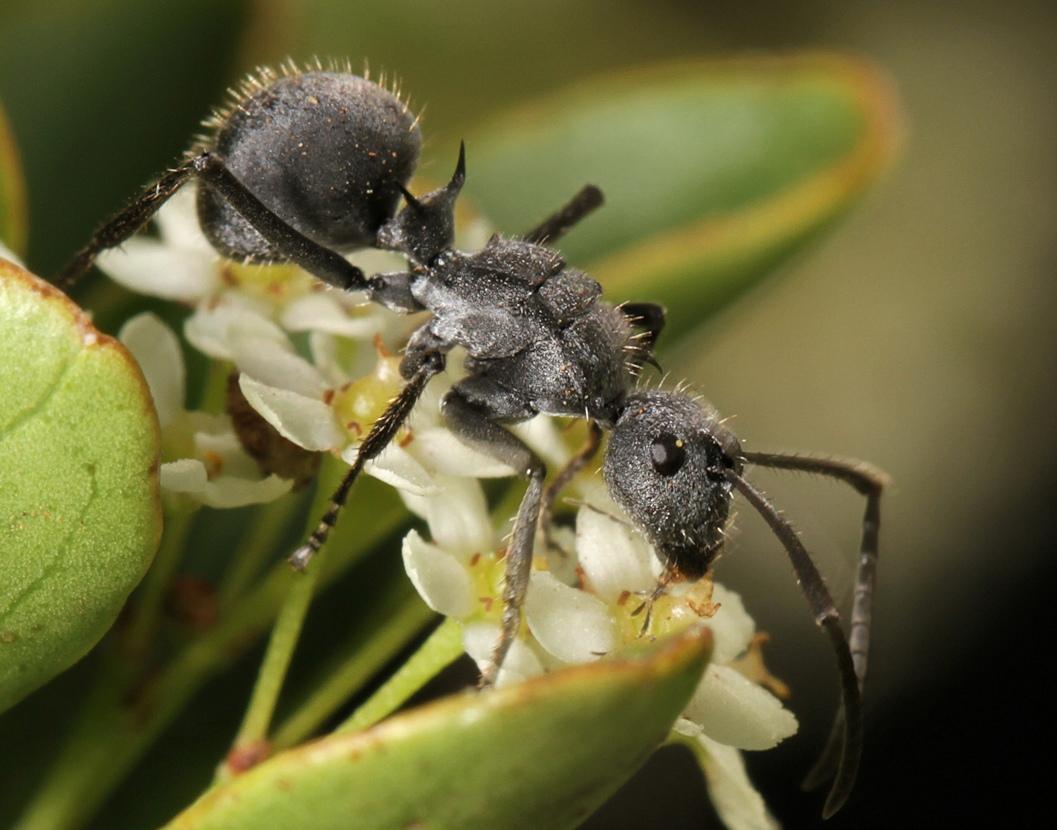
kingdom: Animalia
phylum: Arthropoda
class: Insecta
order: Hymenoptera
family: Formicidae
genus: Polyrhachis
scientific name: Polyrhachis schistacea
